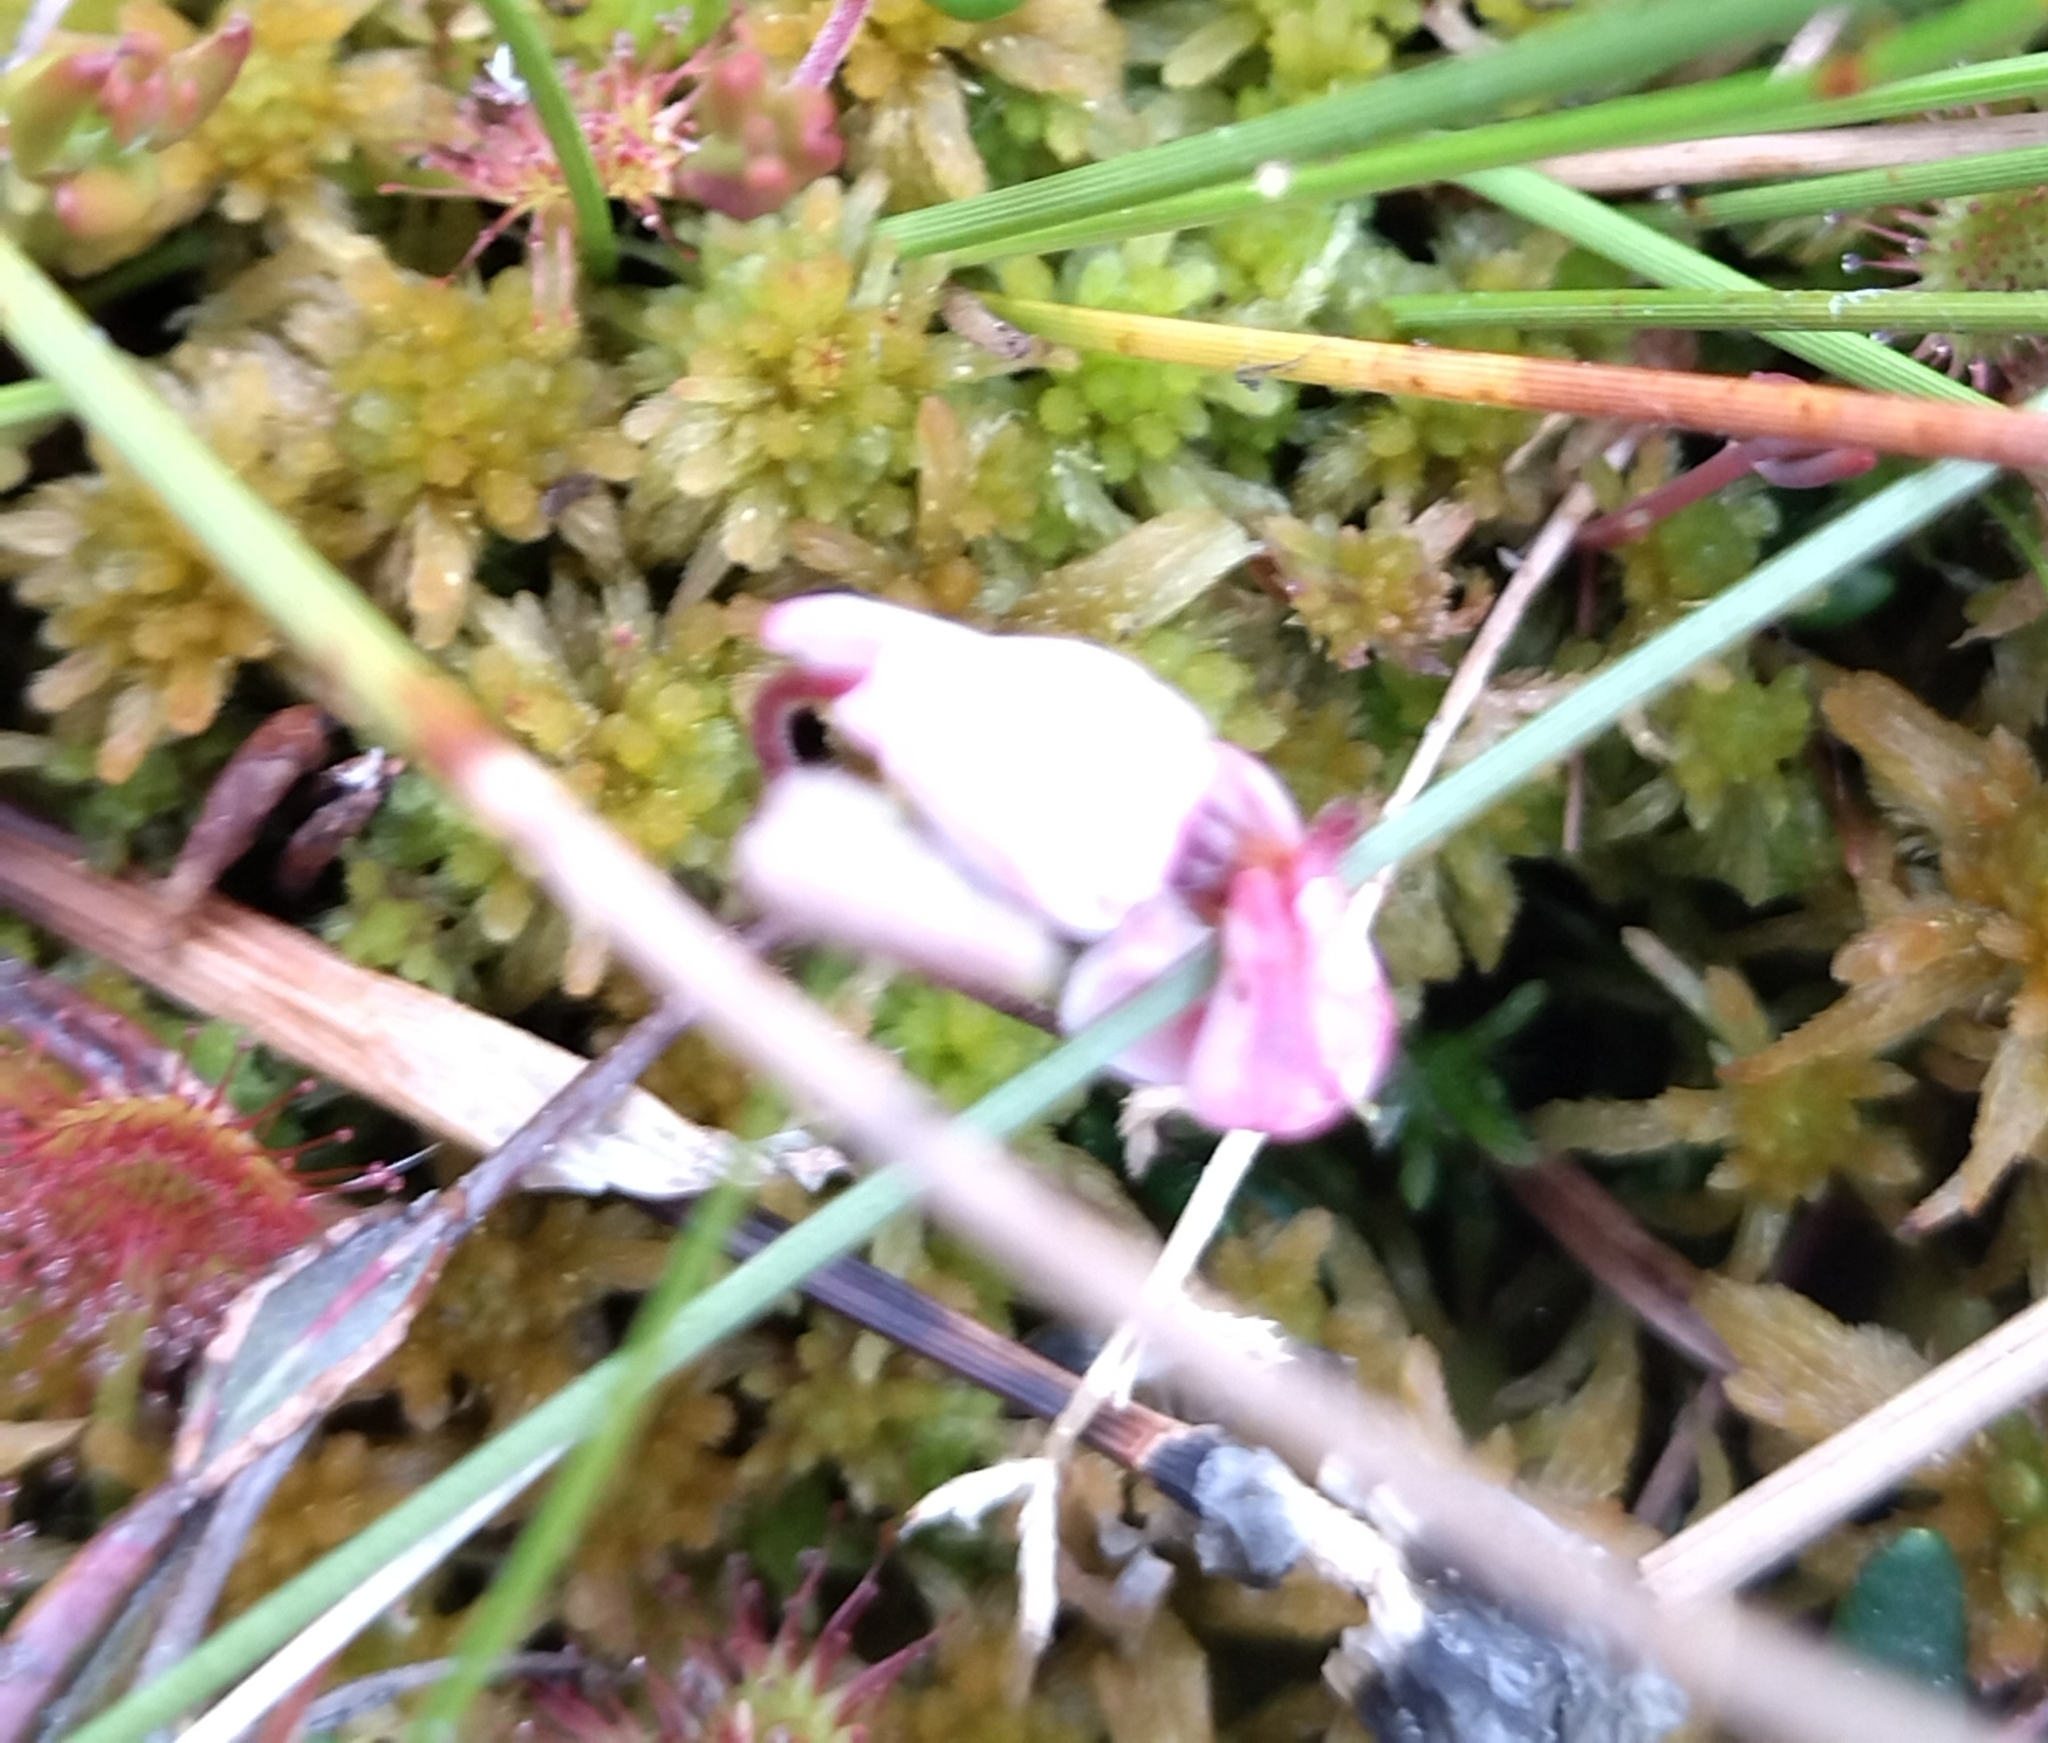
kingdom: Plantae
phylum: Tracheophyta
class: Magnoliopsida
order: Ericales
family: Ericaceae
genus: Vaccinium
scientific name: Vaccinium oxycoccos
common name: Cranberry
